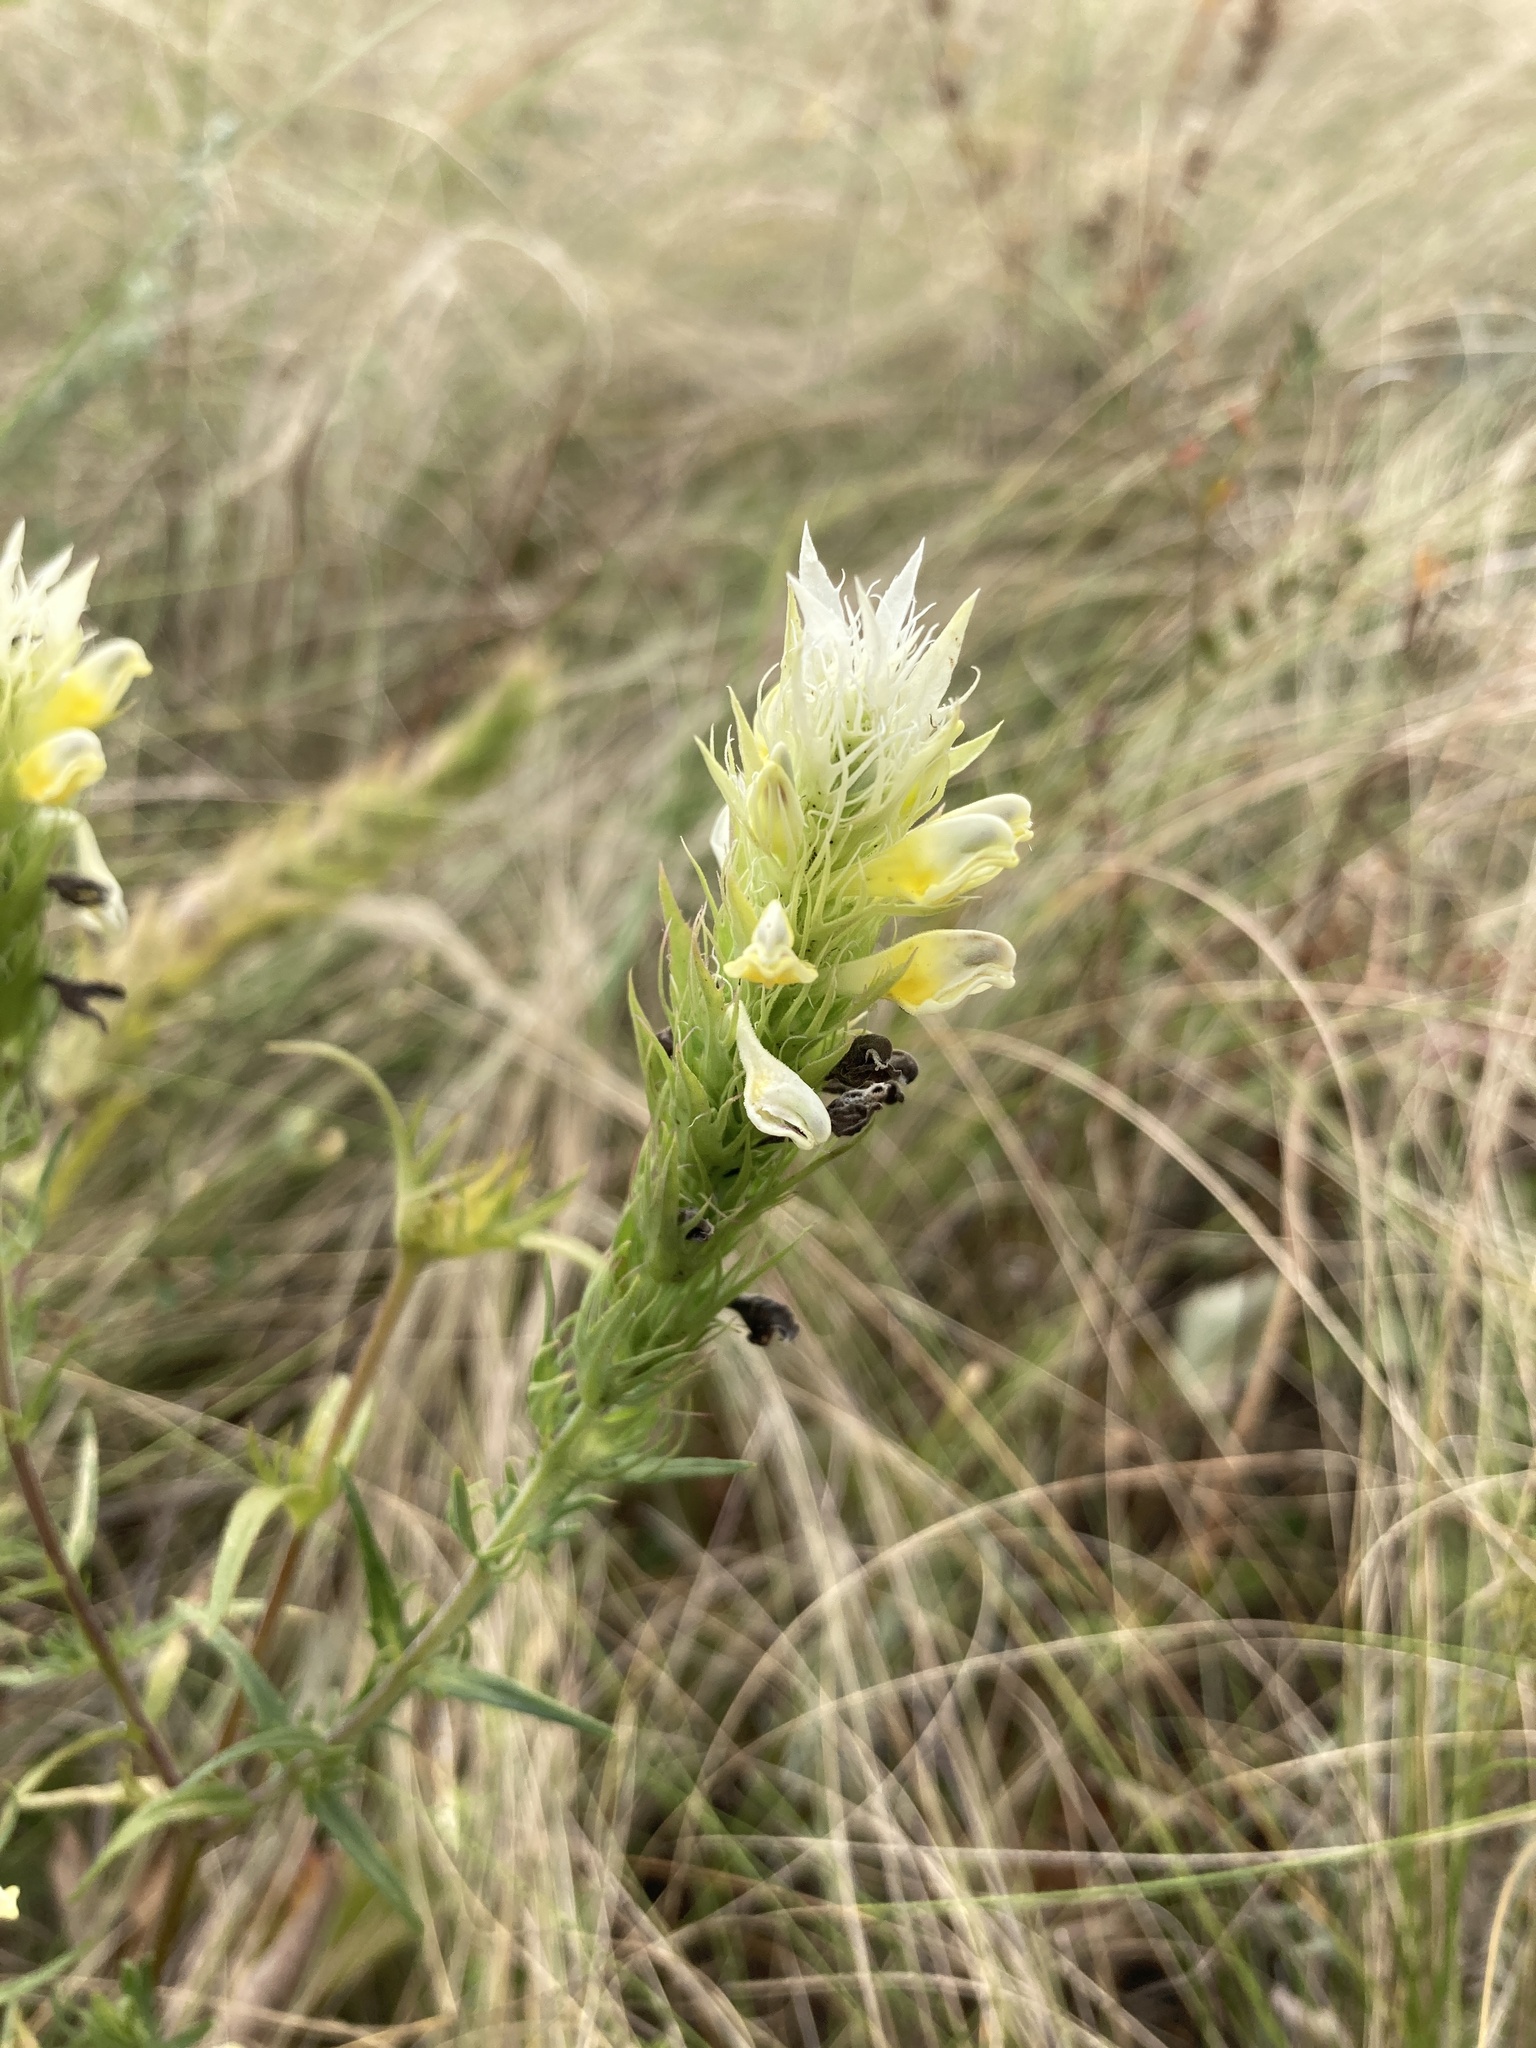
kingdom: Plantae
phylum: Tracheophyta
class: Magnoliopsida
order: Lamiales
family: Orobanchaceae
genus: Melampyrum
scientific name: Melampyrum arvense
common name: Field cow-wheat
